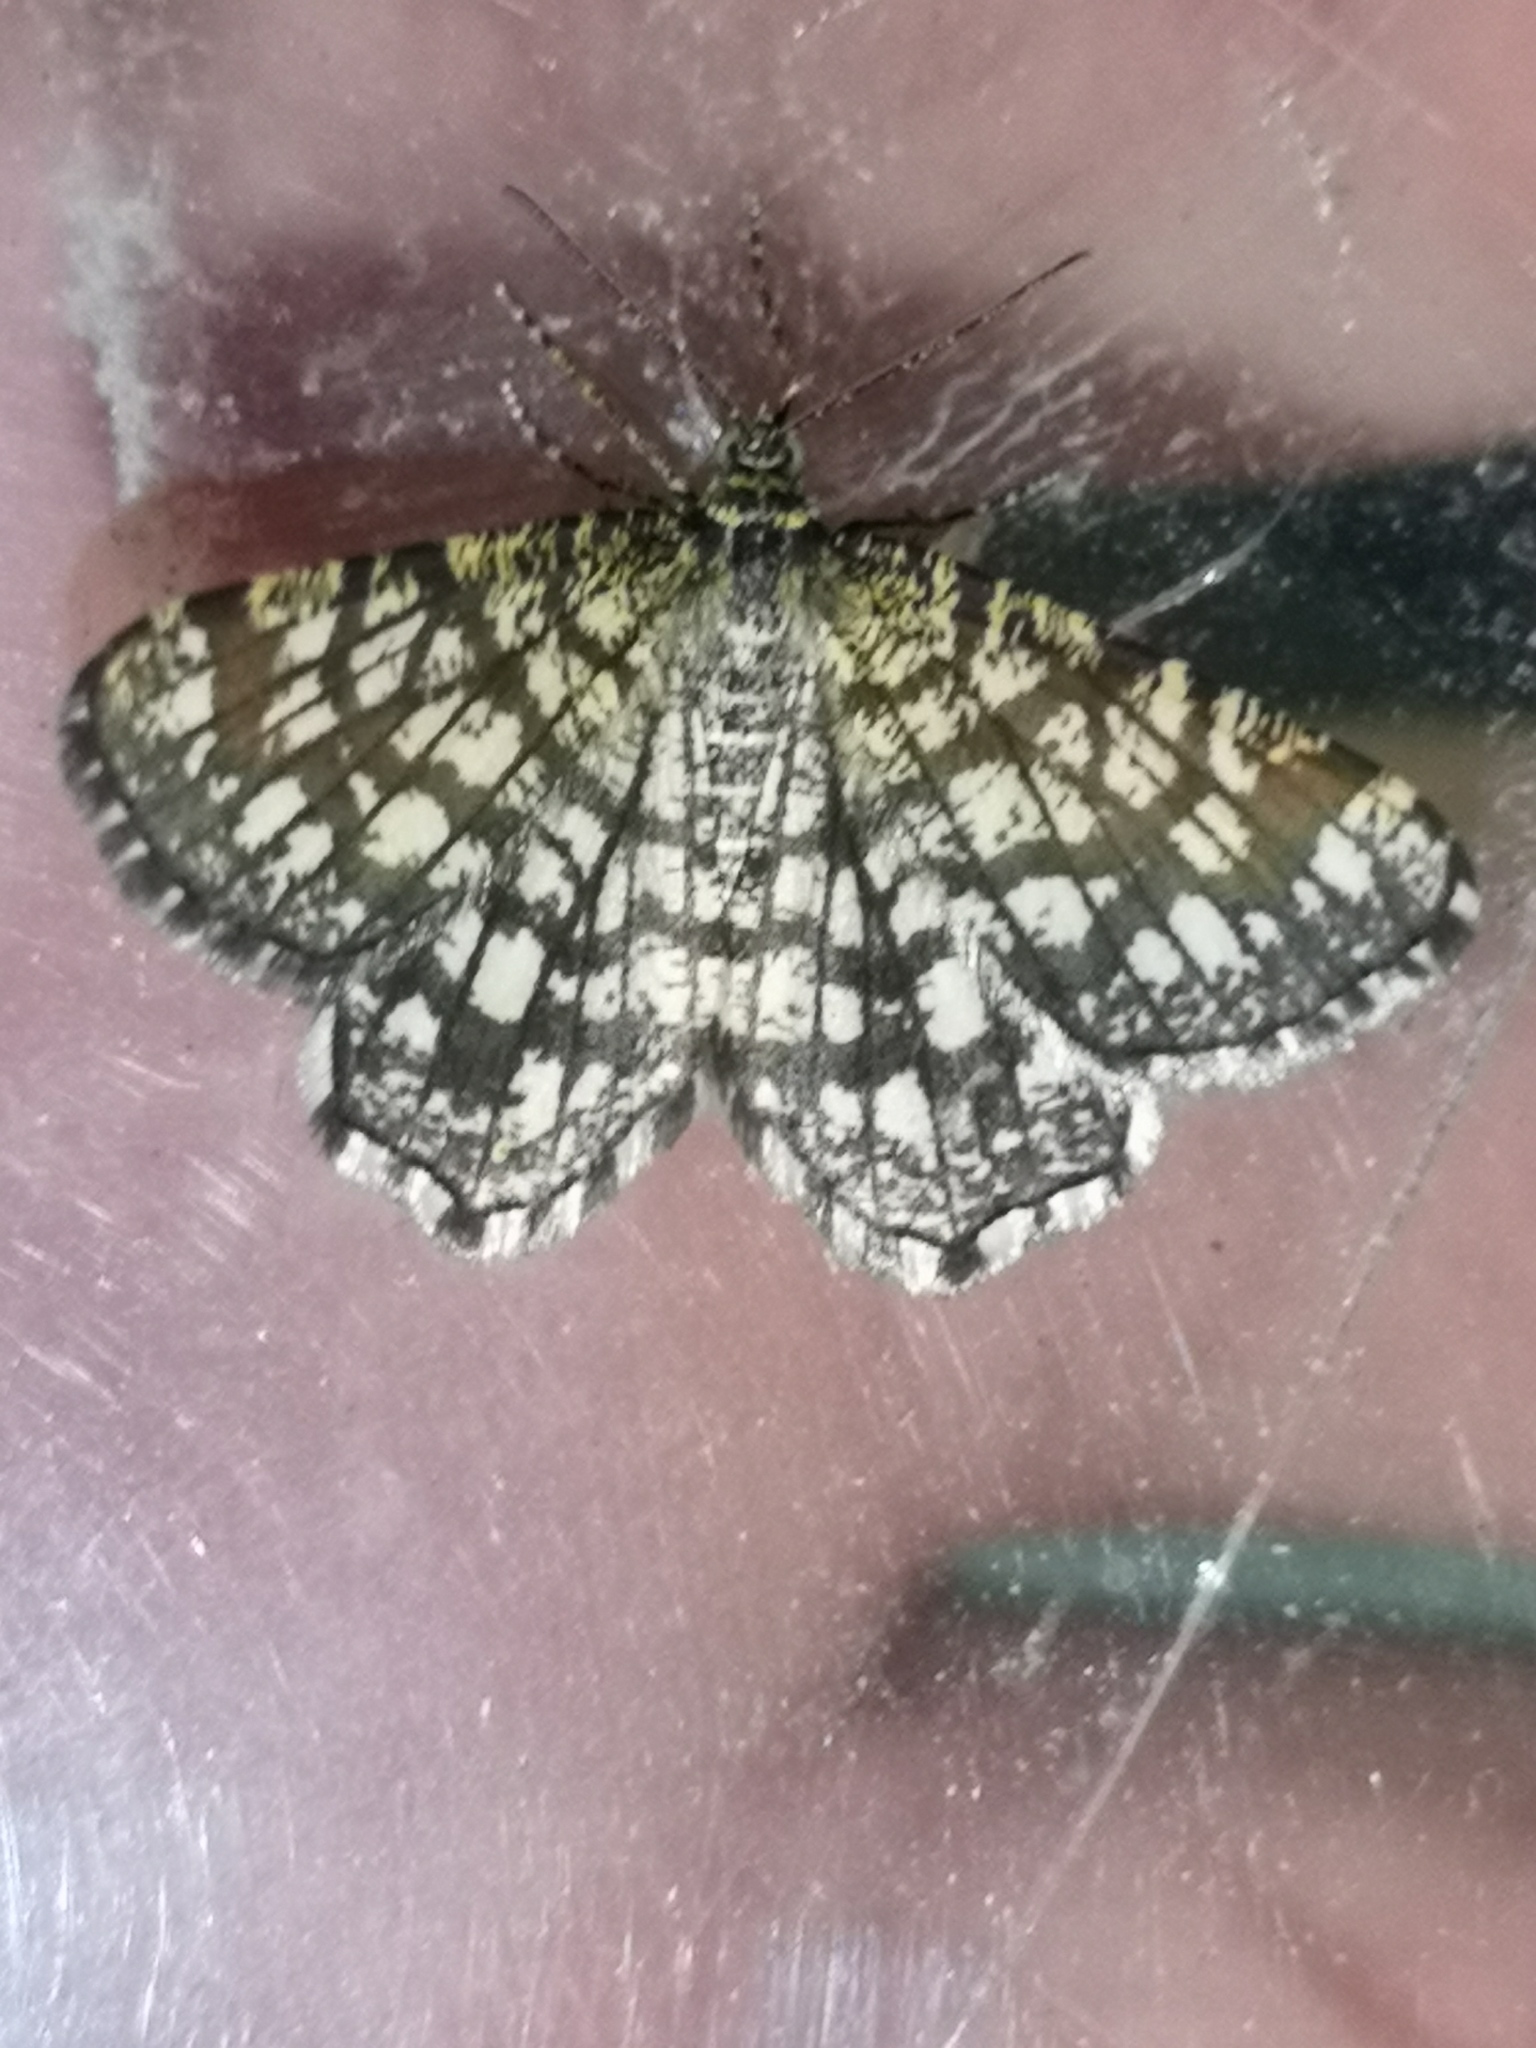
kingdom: Animalia
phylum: Arthropoda
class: Insecta
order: Lepidoptera
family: Geometridae
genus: Chiasmia
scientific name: Chiasmia clathrata
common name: Latticed heath
